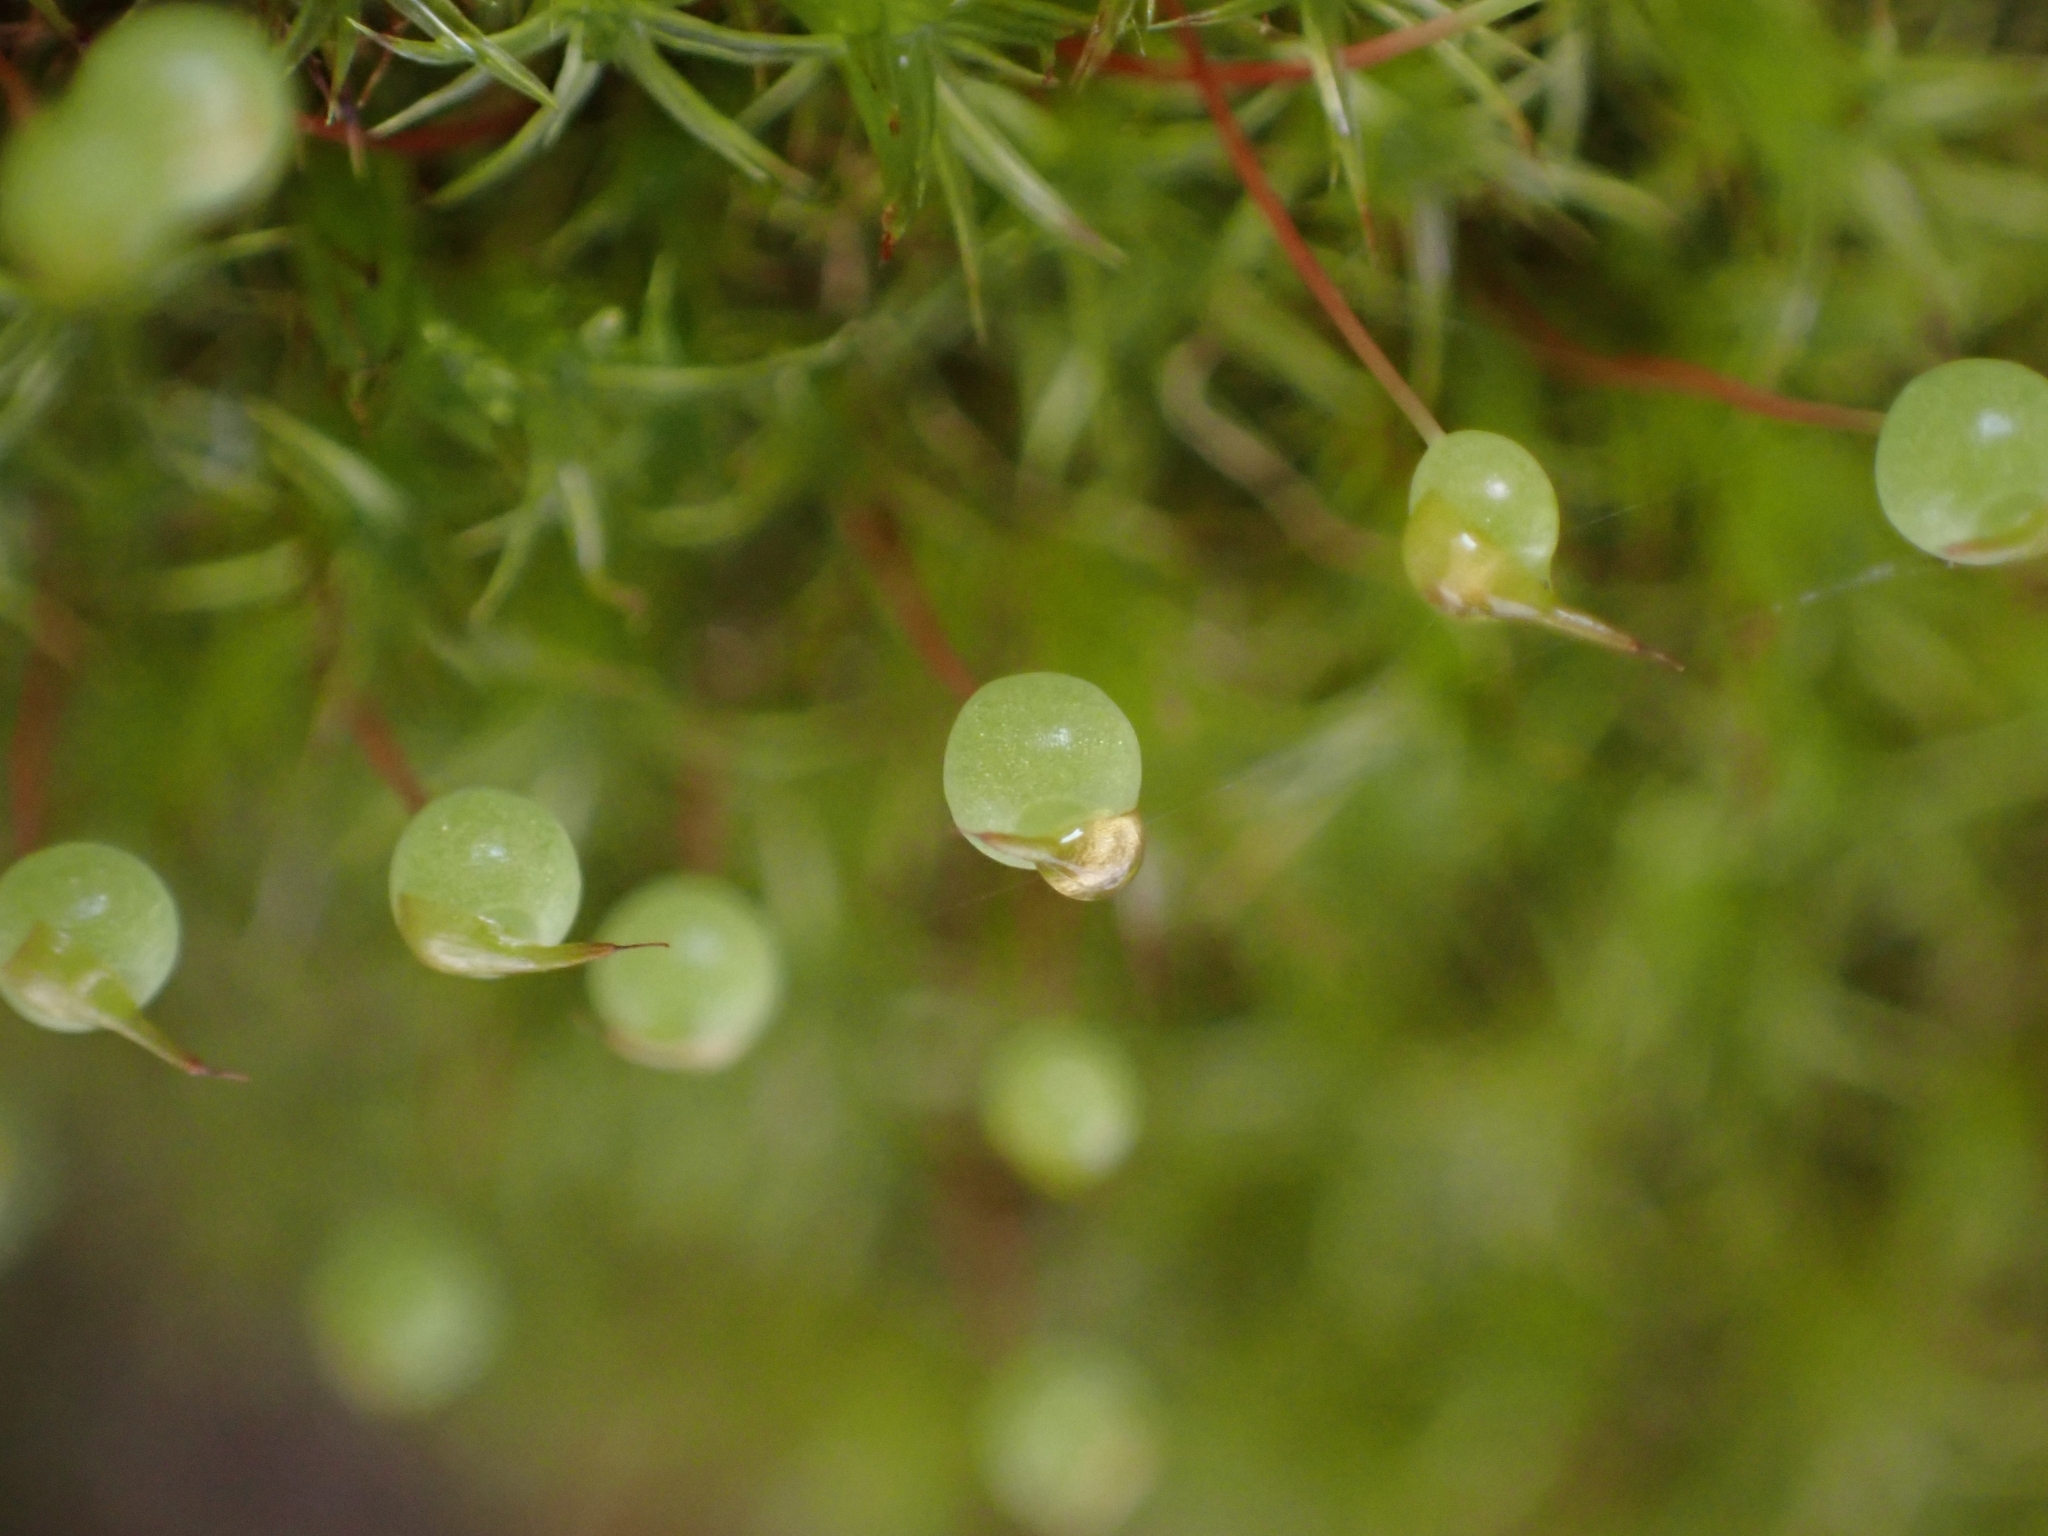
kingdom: Plantae
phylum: Bryophyta
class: Bryopsida
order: Bartramiales
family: Bartramiaceae
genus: Plagiopus
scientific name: Plagiopus oederianus
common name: Oeder's apple moss
